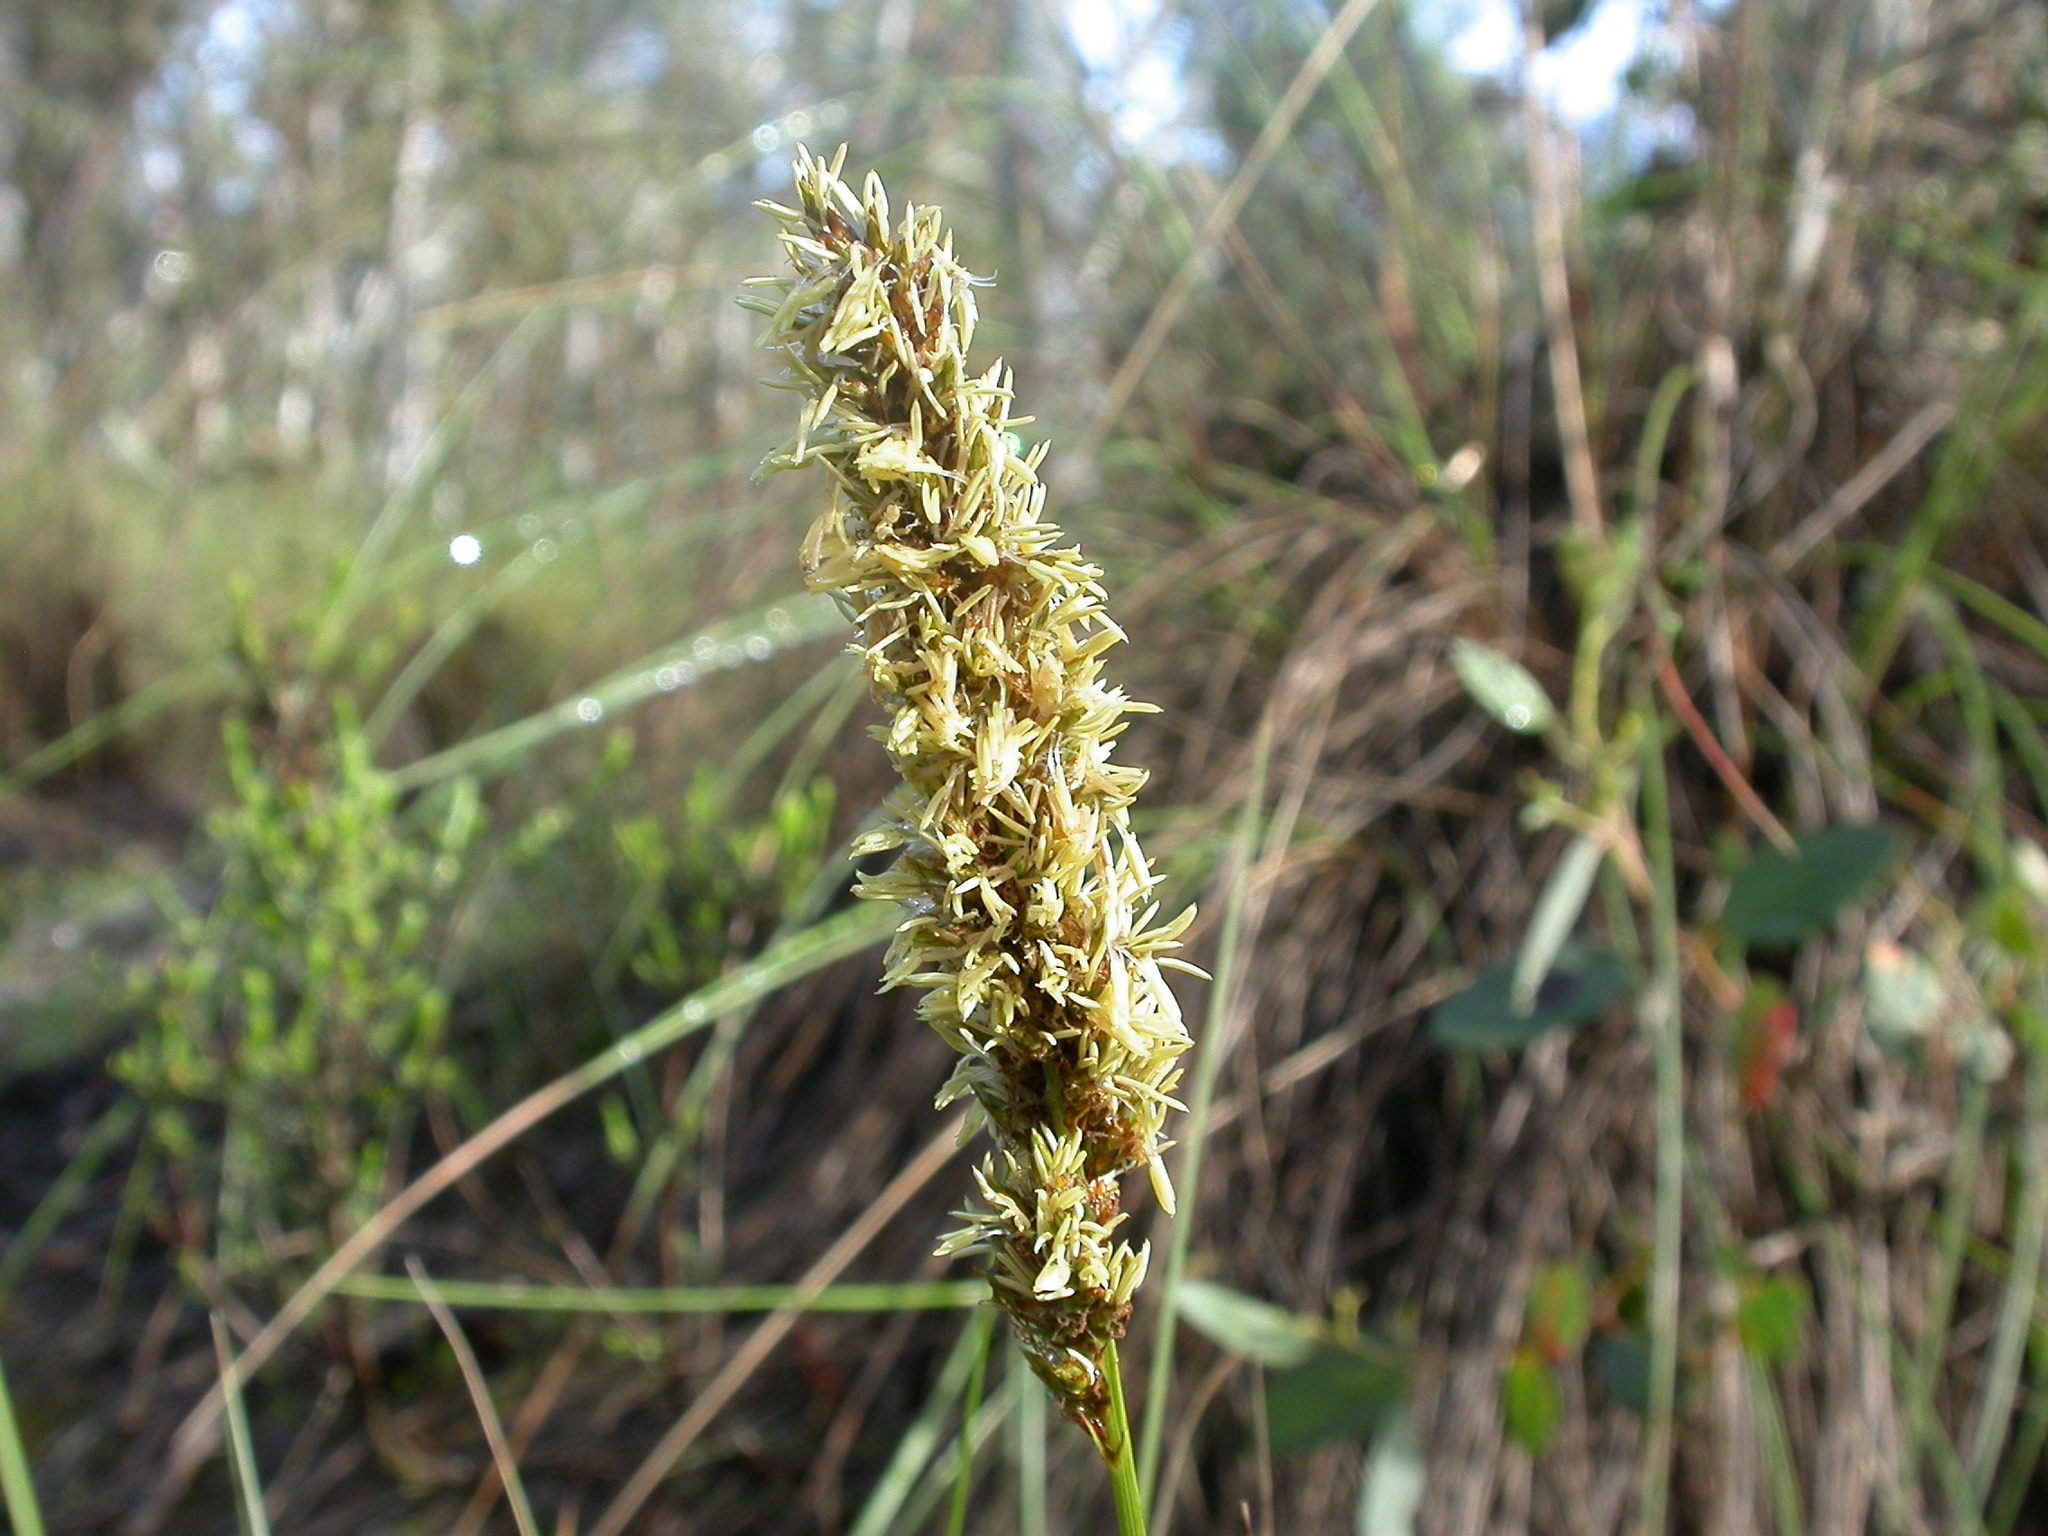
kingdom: Plantae
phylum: Tracheophyta
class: Liliopsida
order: Poales
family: Cyperaceae
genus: Carex
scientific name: Carex appressa
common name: Tussock sedge
